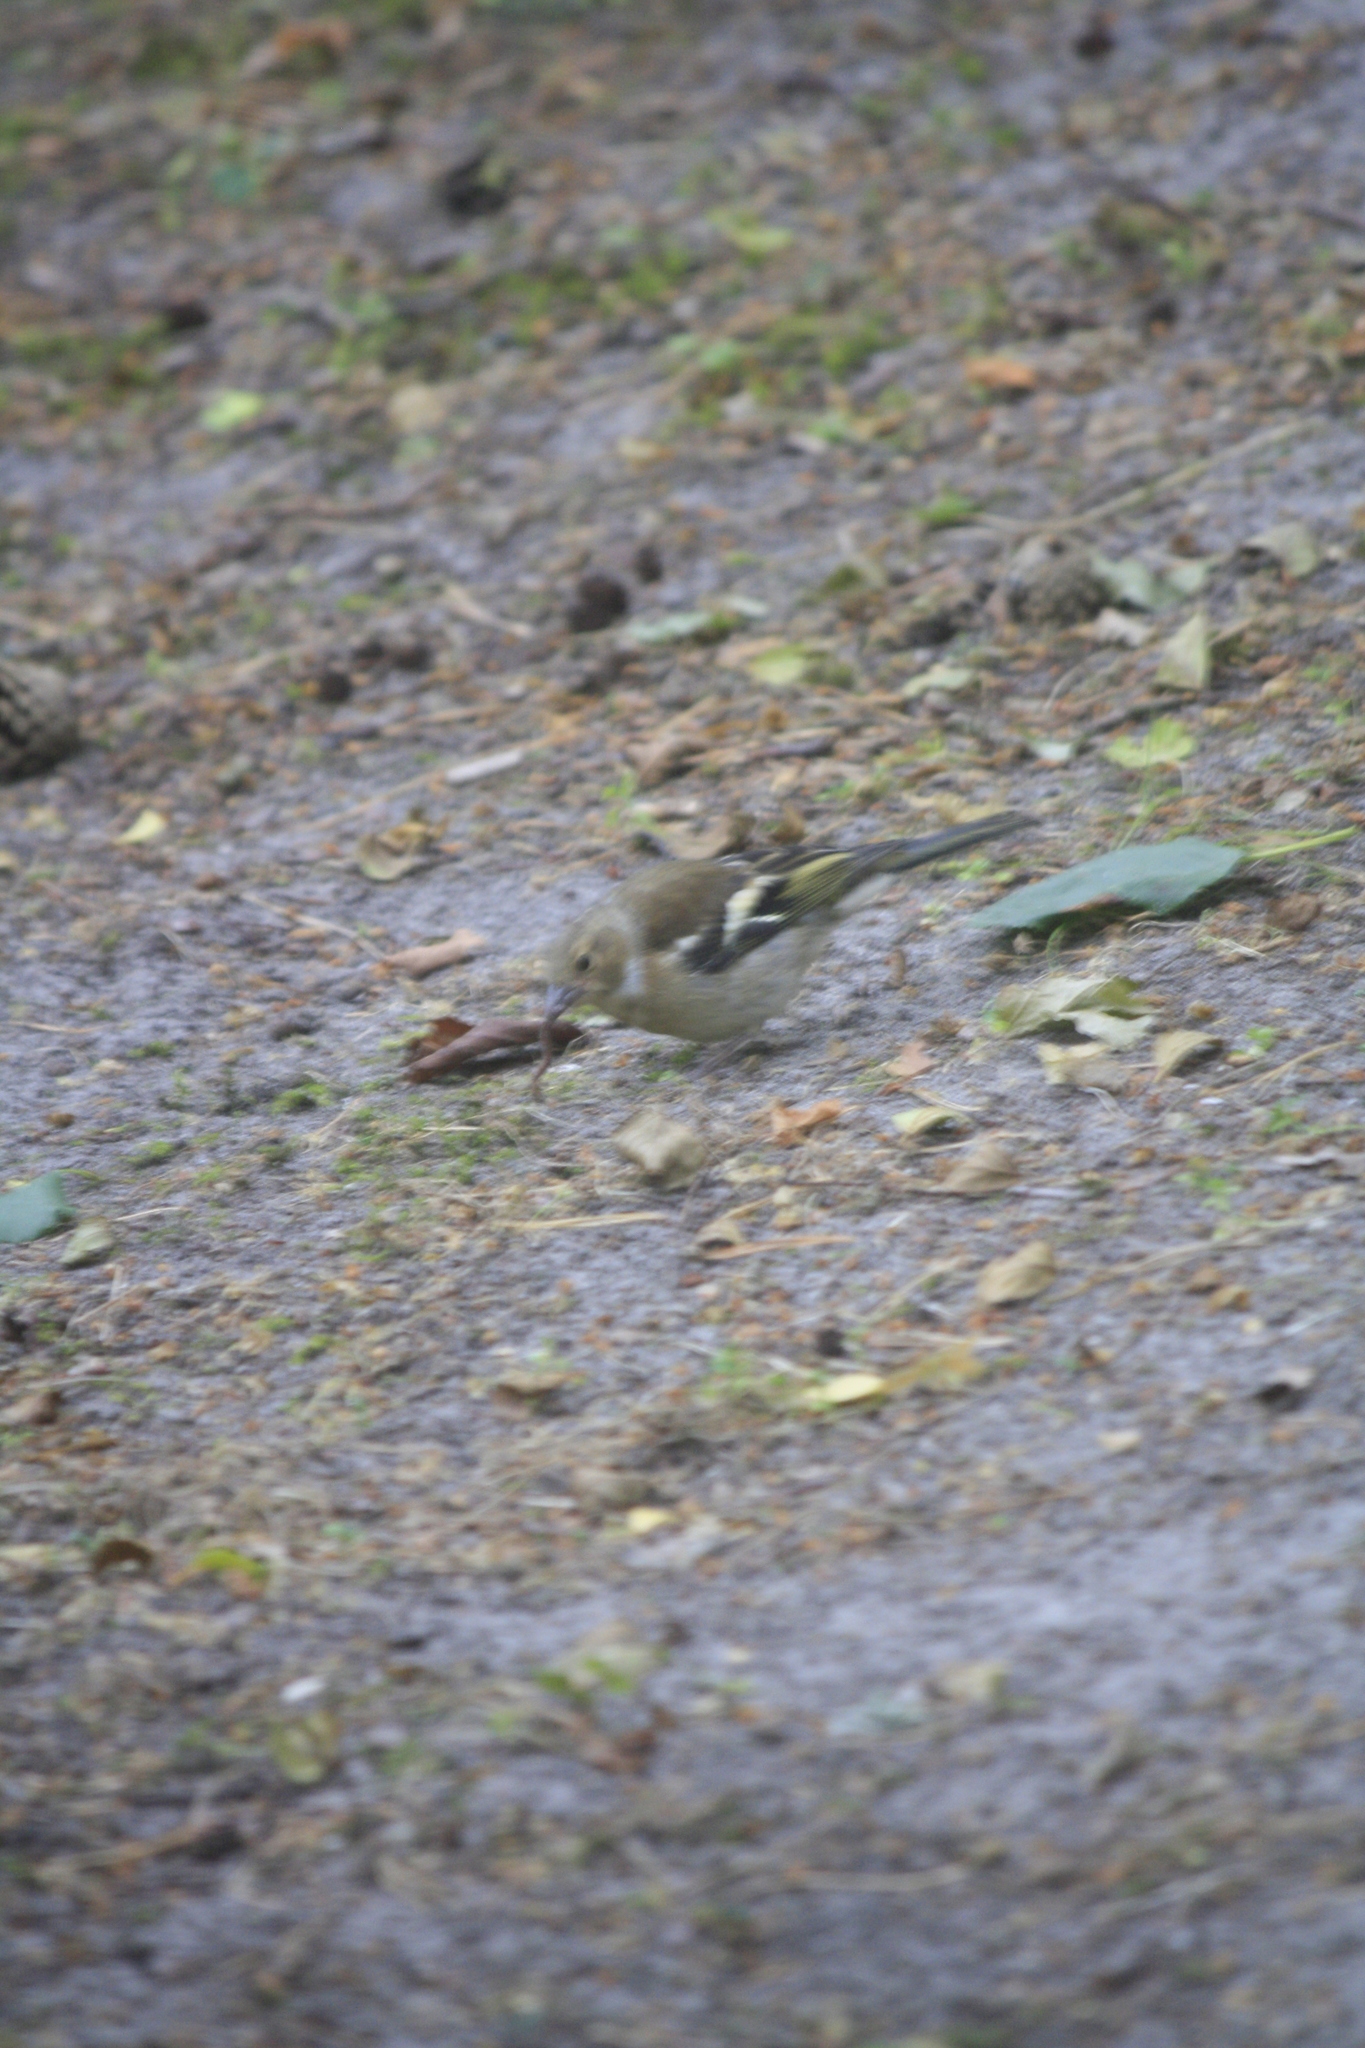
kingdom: Animalia
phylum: Chordata
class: Aves
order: Passeriformes
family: Fringillidae
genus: Fringilla
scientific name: Fringilla coelebs
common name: Common chaffinch
